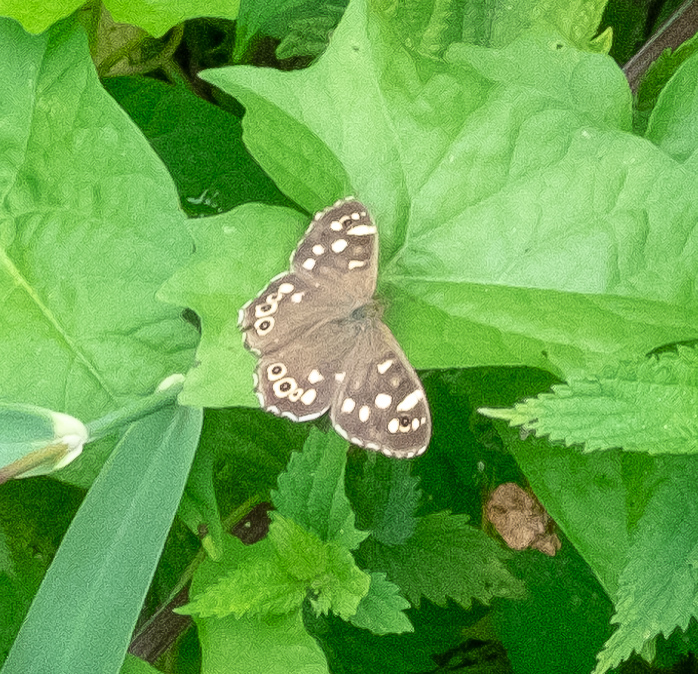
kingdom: Animalia
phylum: Arthropoda
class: Insecta
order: Lepidoptera
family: Nymphalidae
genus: Pararge
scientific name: Pararge aegeria
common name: Speckled wood
